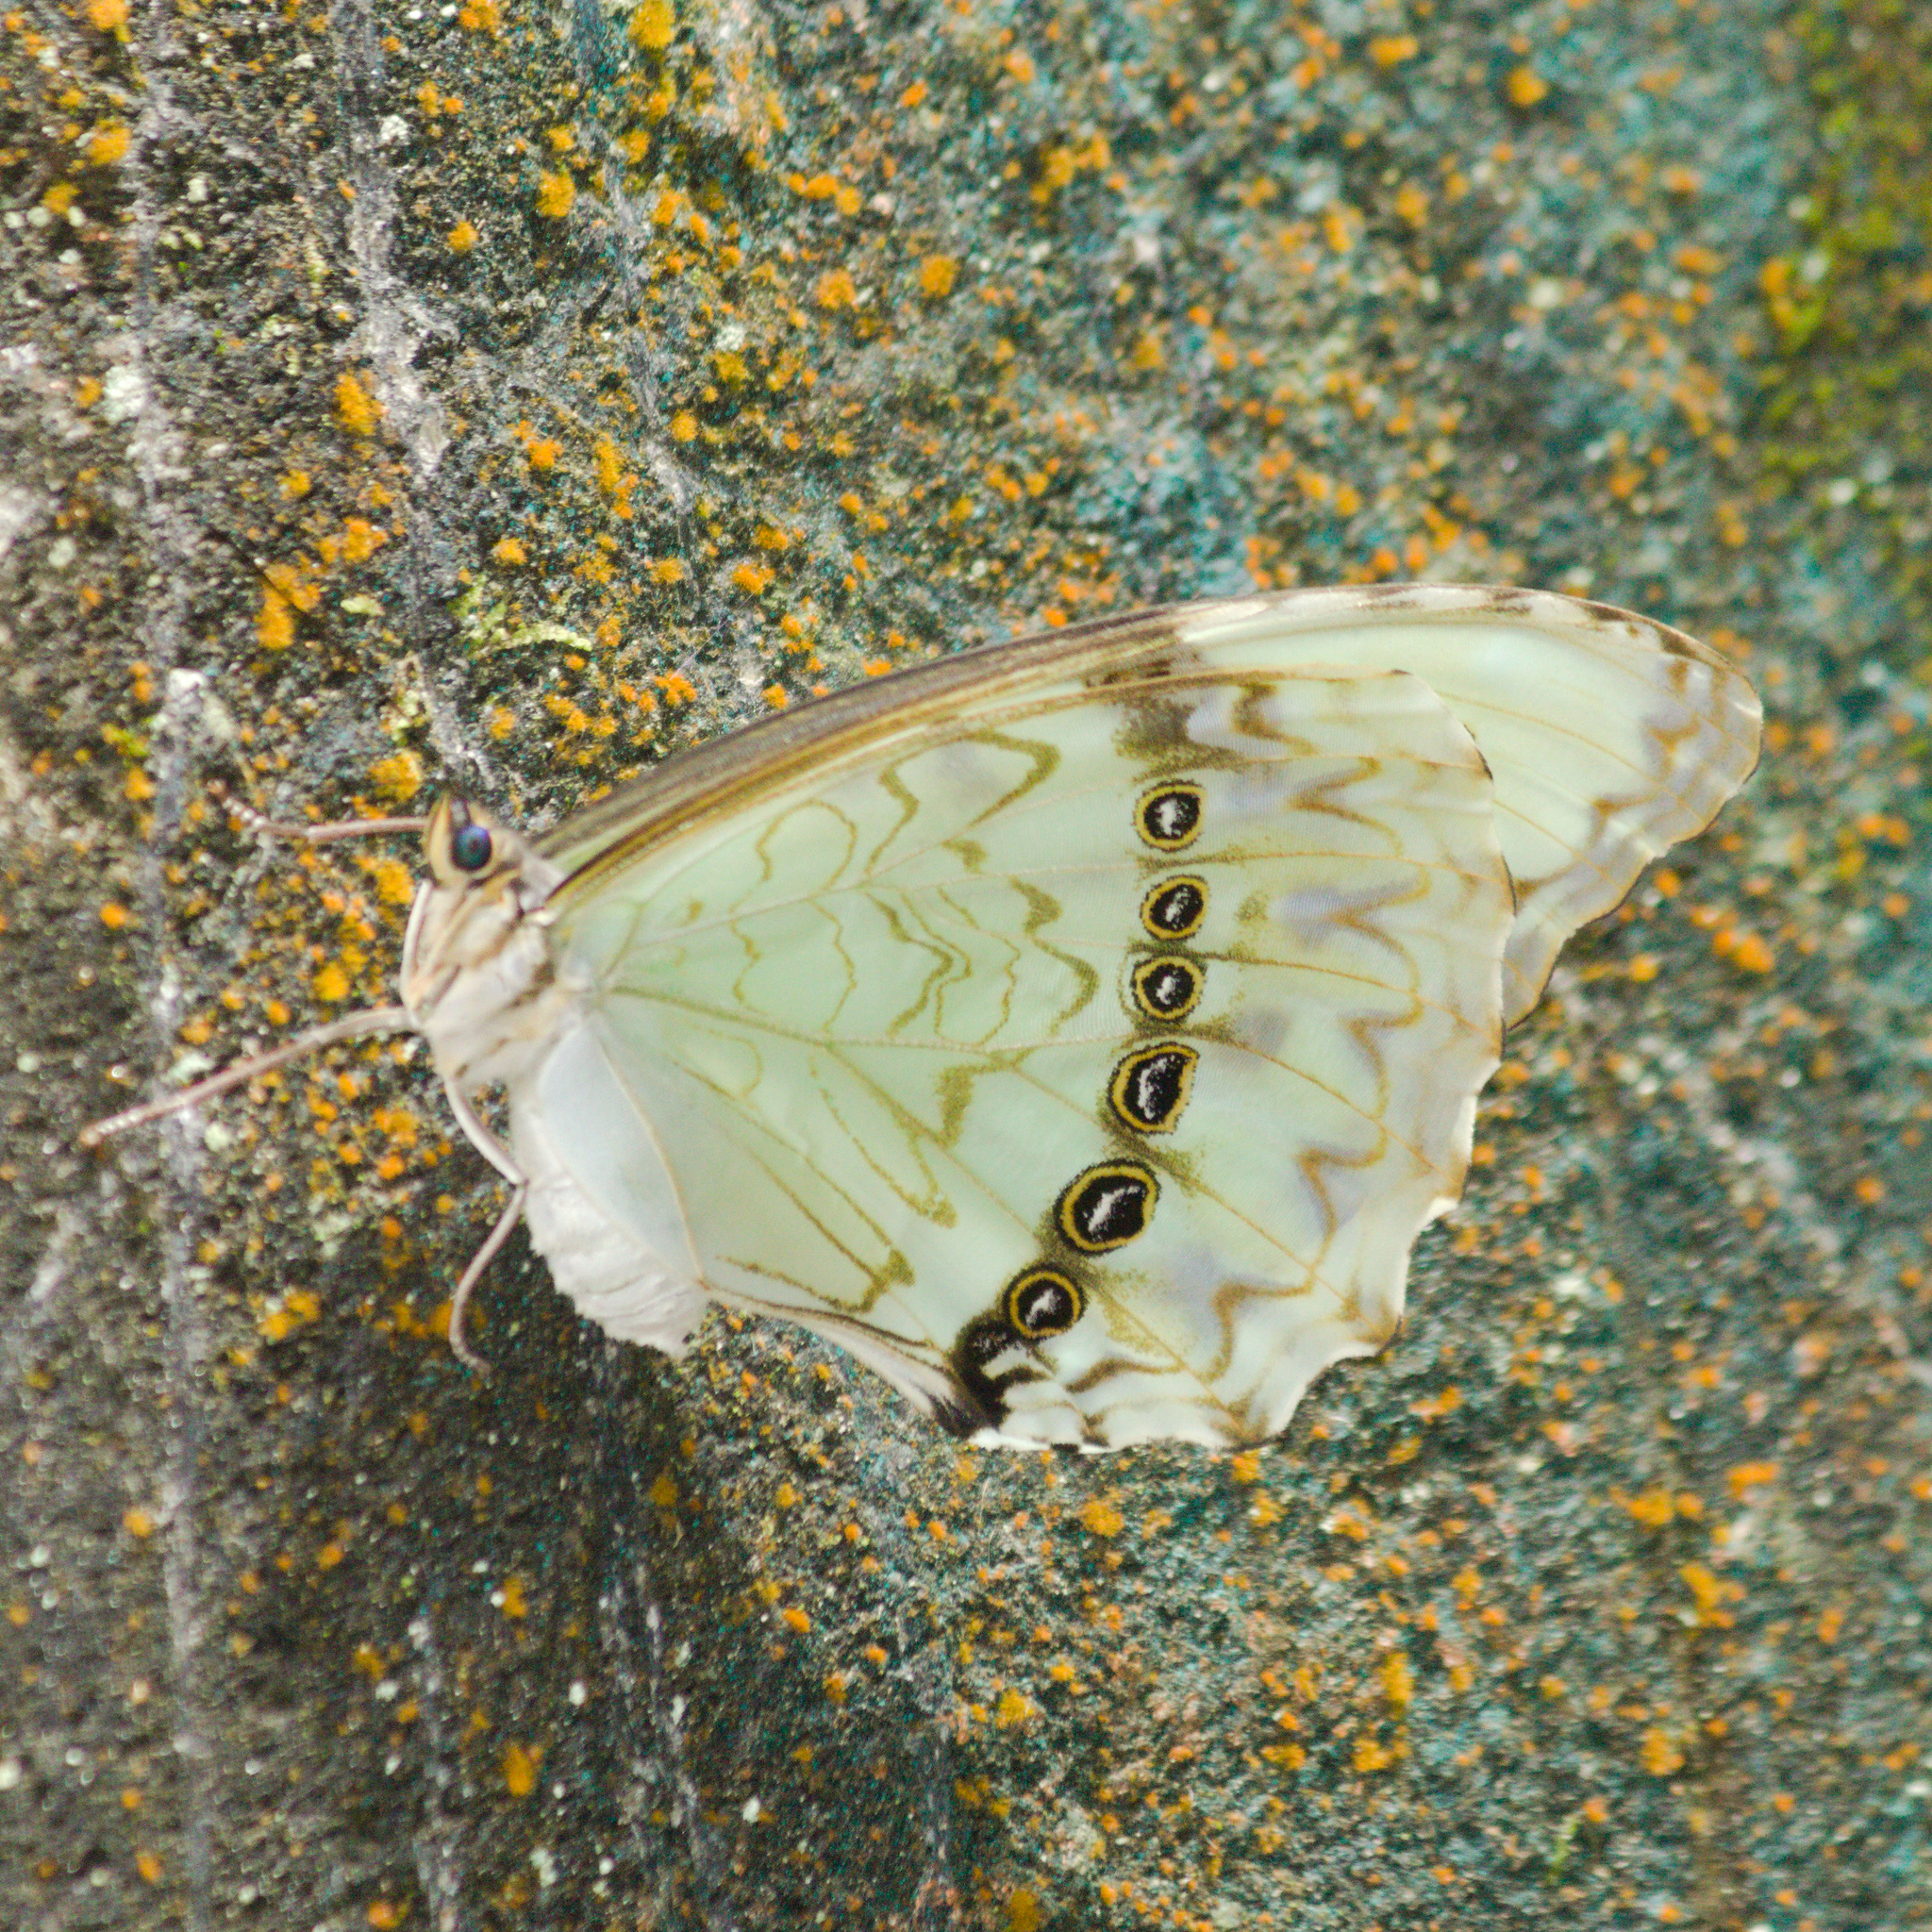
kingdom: Animalia
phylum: Arthropoda
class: Insecta
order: Lepidoptera
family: Nymphalidae
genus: Morpho
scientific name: Morpho epistrophus
